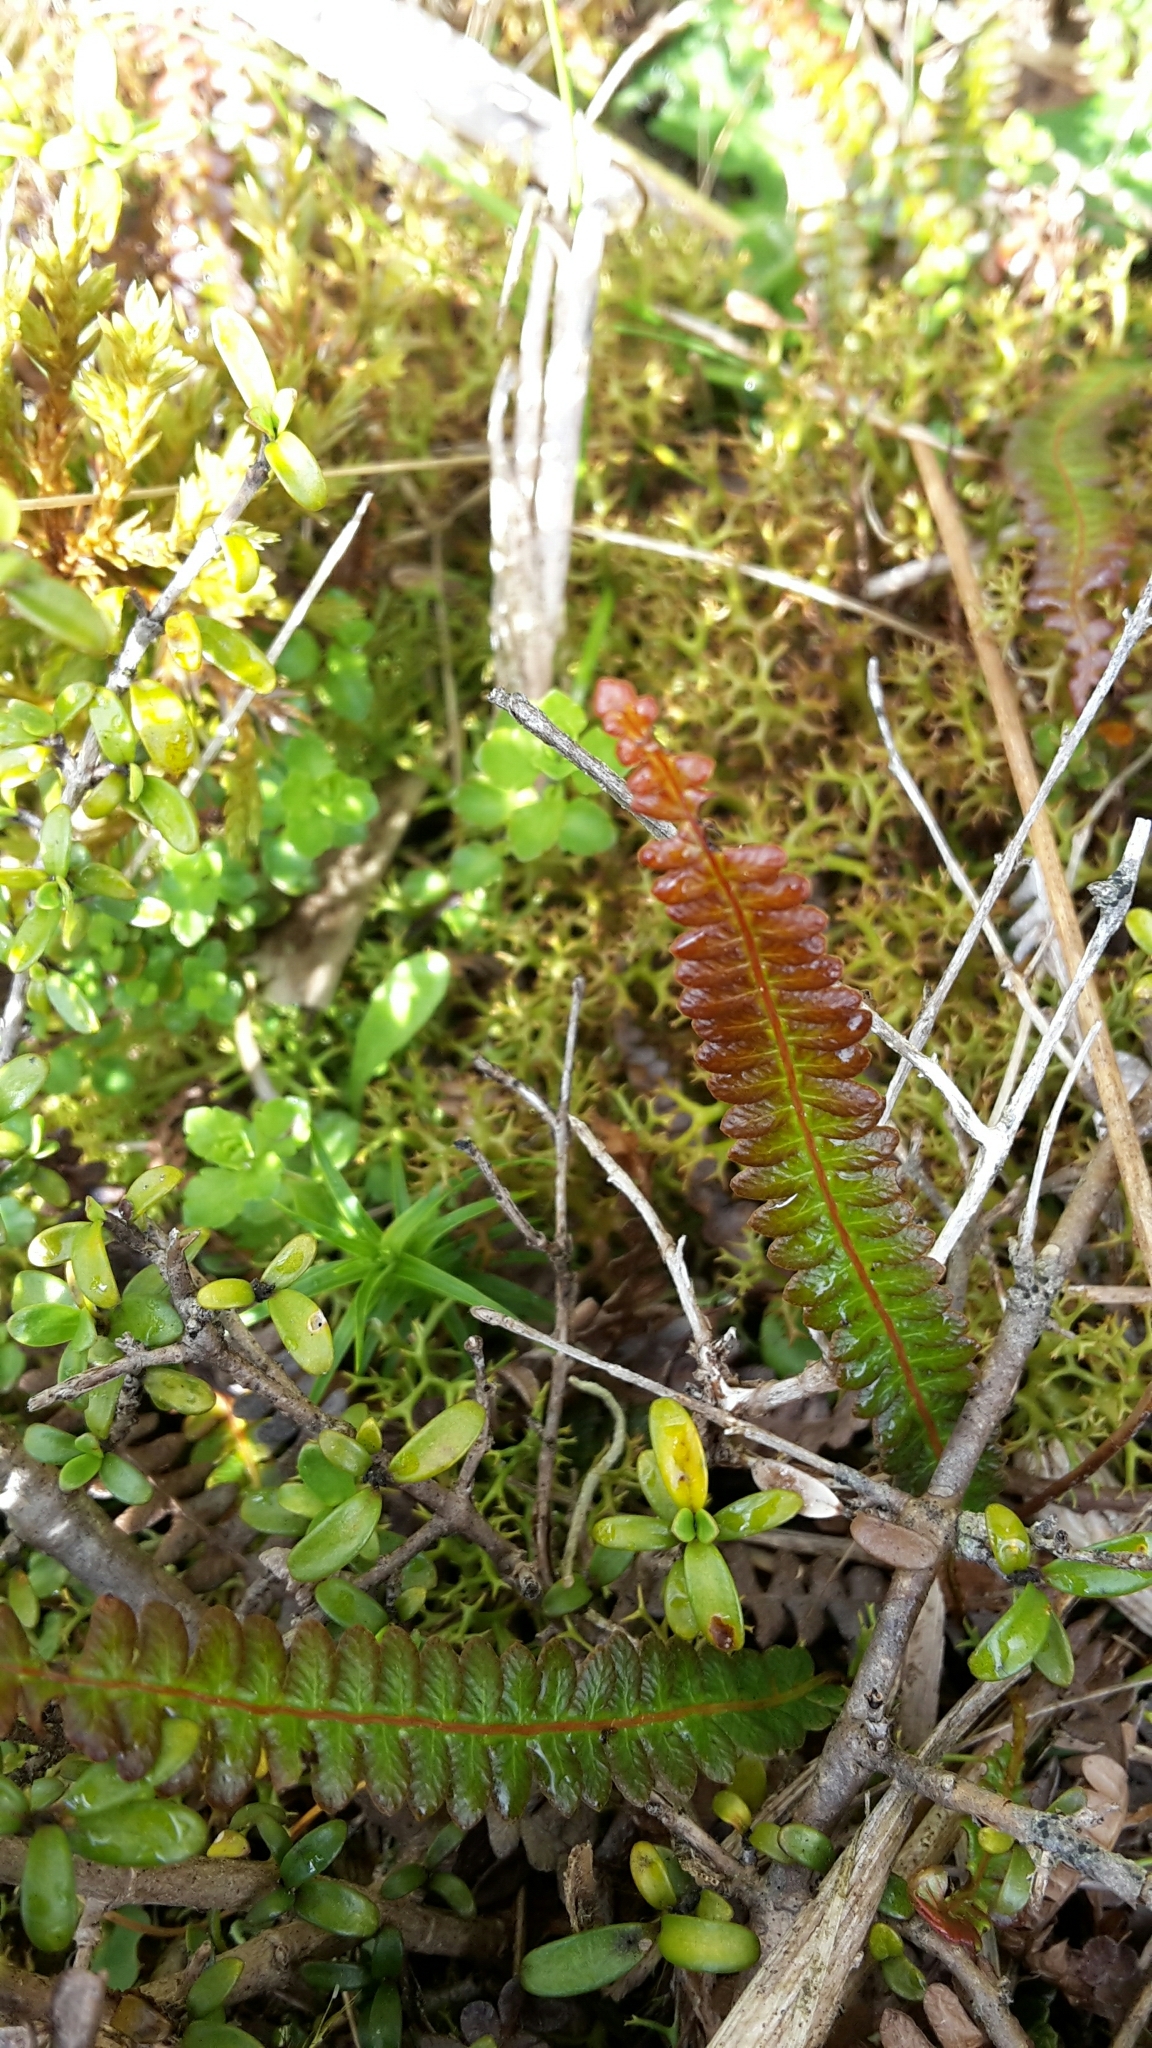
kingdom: Plantae
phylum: Tracheophyta
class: Polypodiopsida
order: Polypodiales
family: Blechnaceae
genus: Austroblechnum
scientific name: Austroblechnum penna-marina
